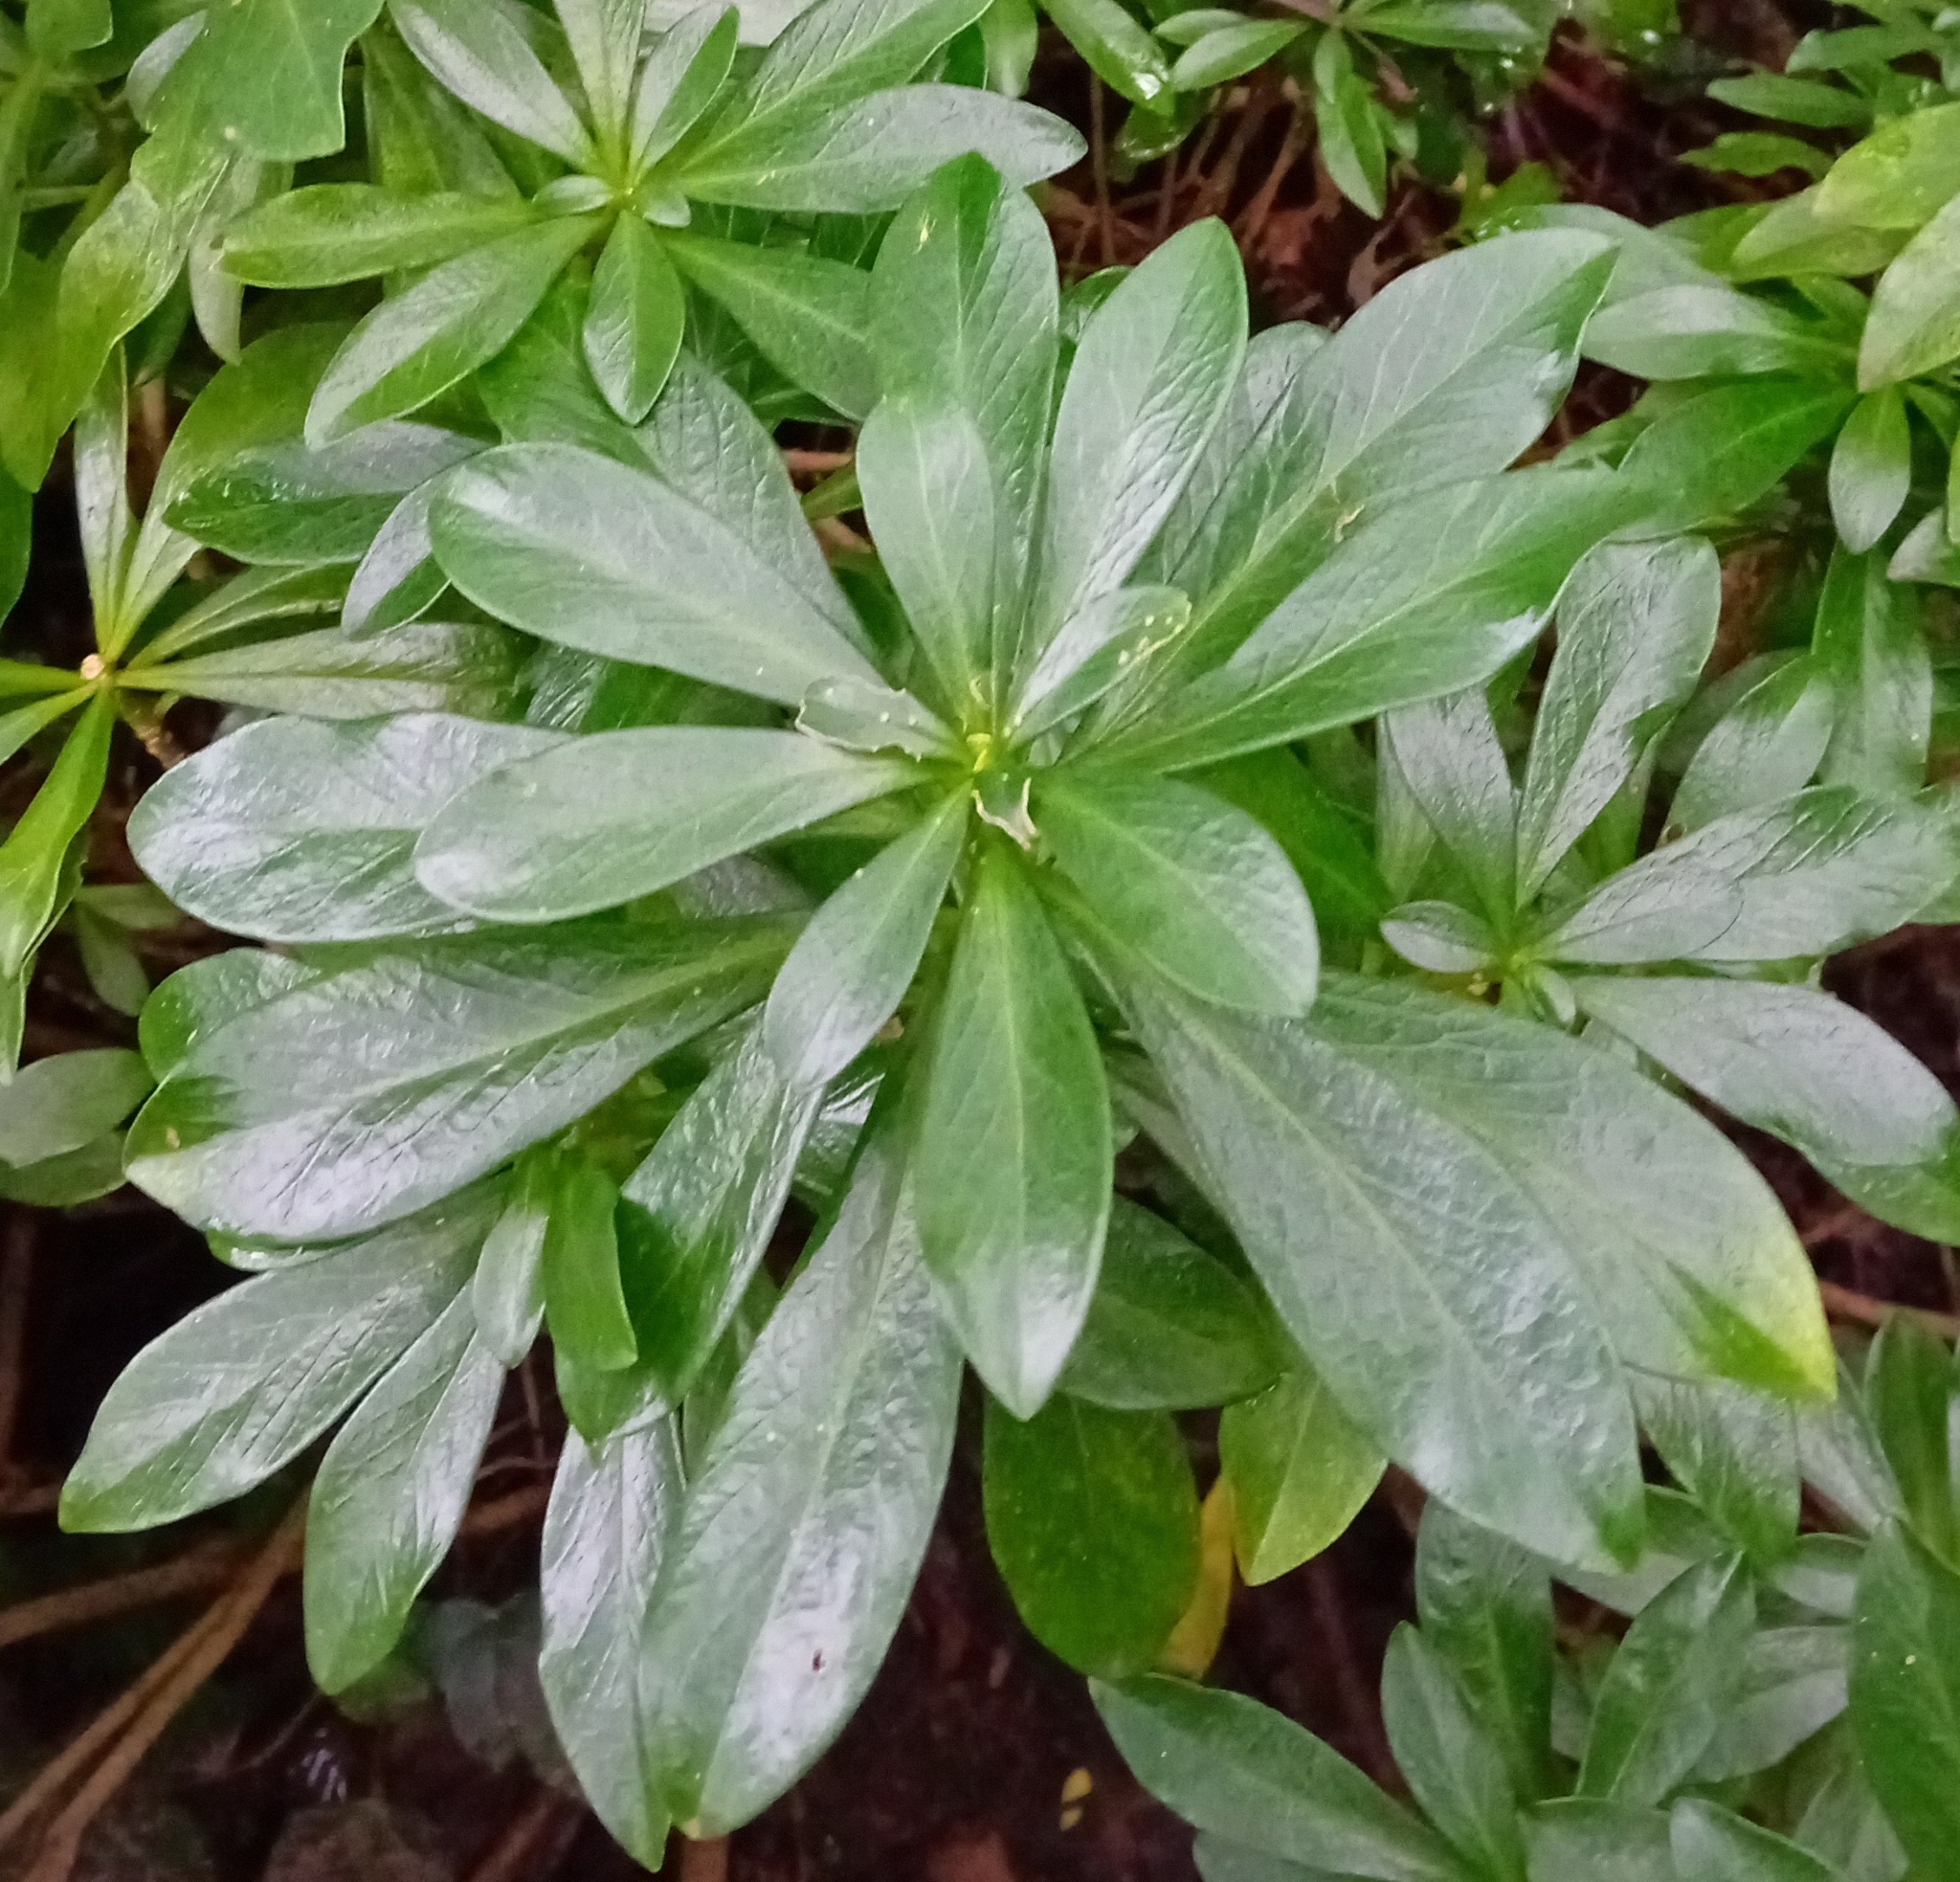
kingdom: Plantae
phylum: Tracheophyta
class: Magnoliopsida
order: Malvales
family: Thymelaeaceae
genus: Daphne
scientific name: Daphne laureola
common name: Spurge-laurel
